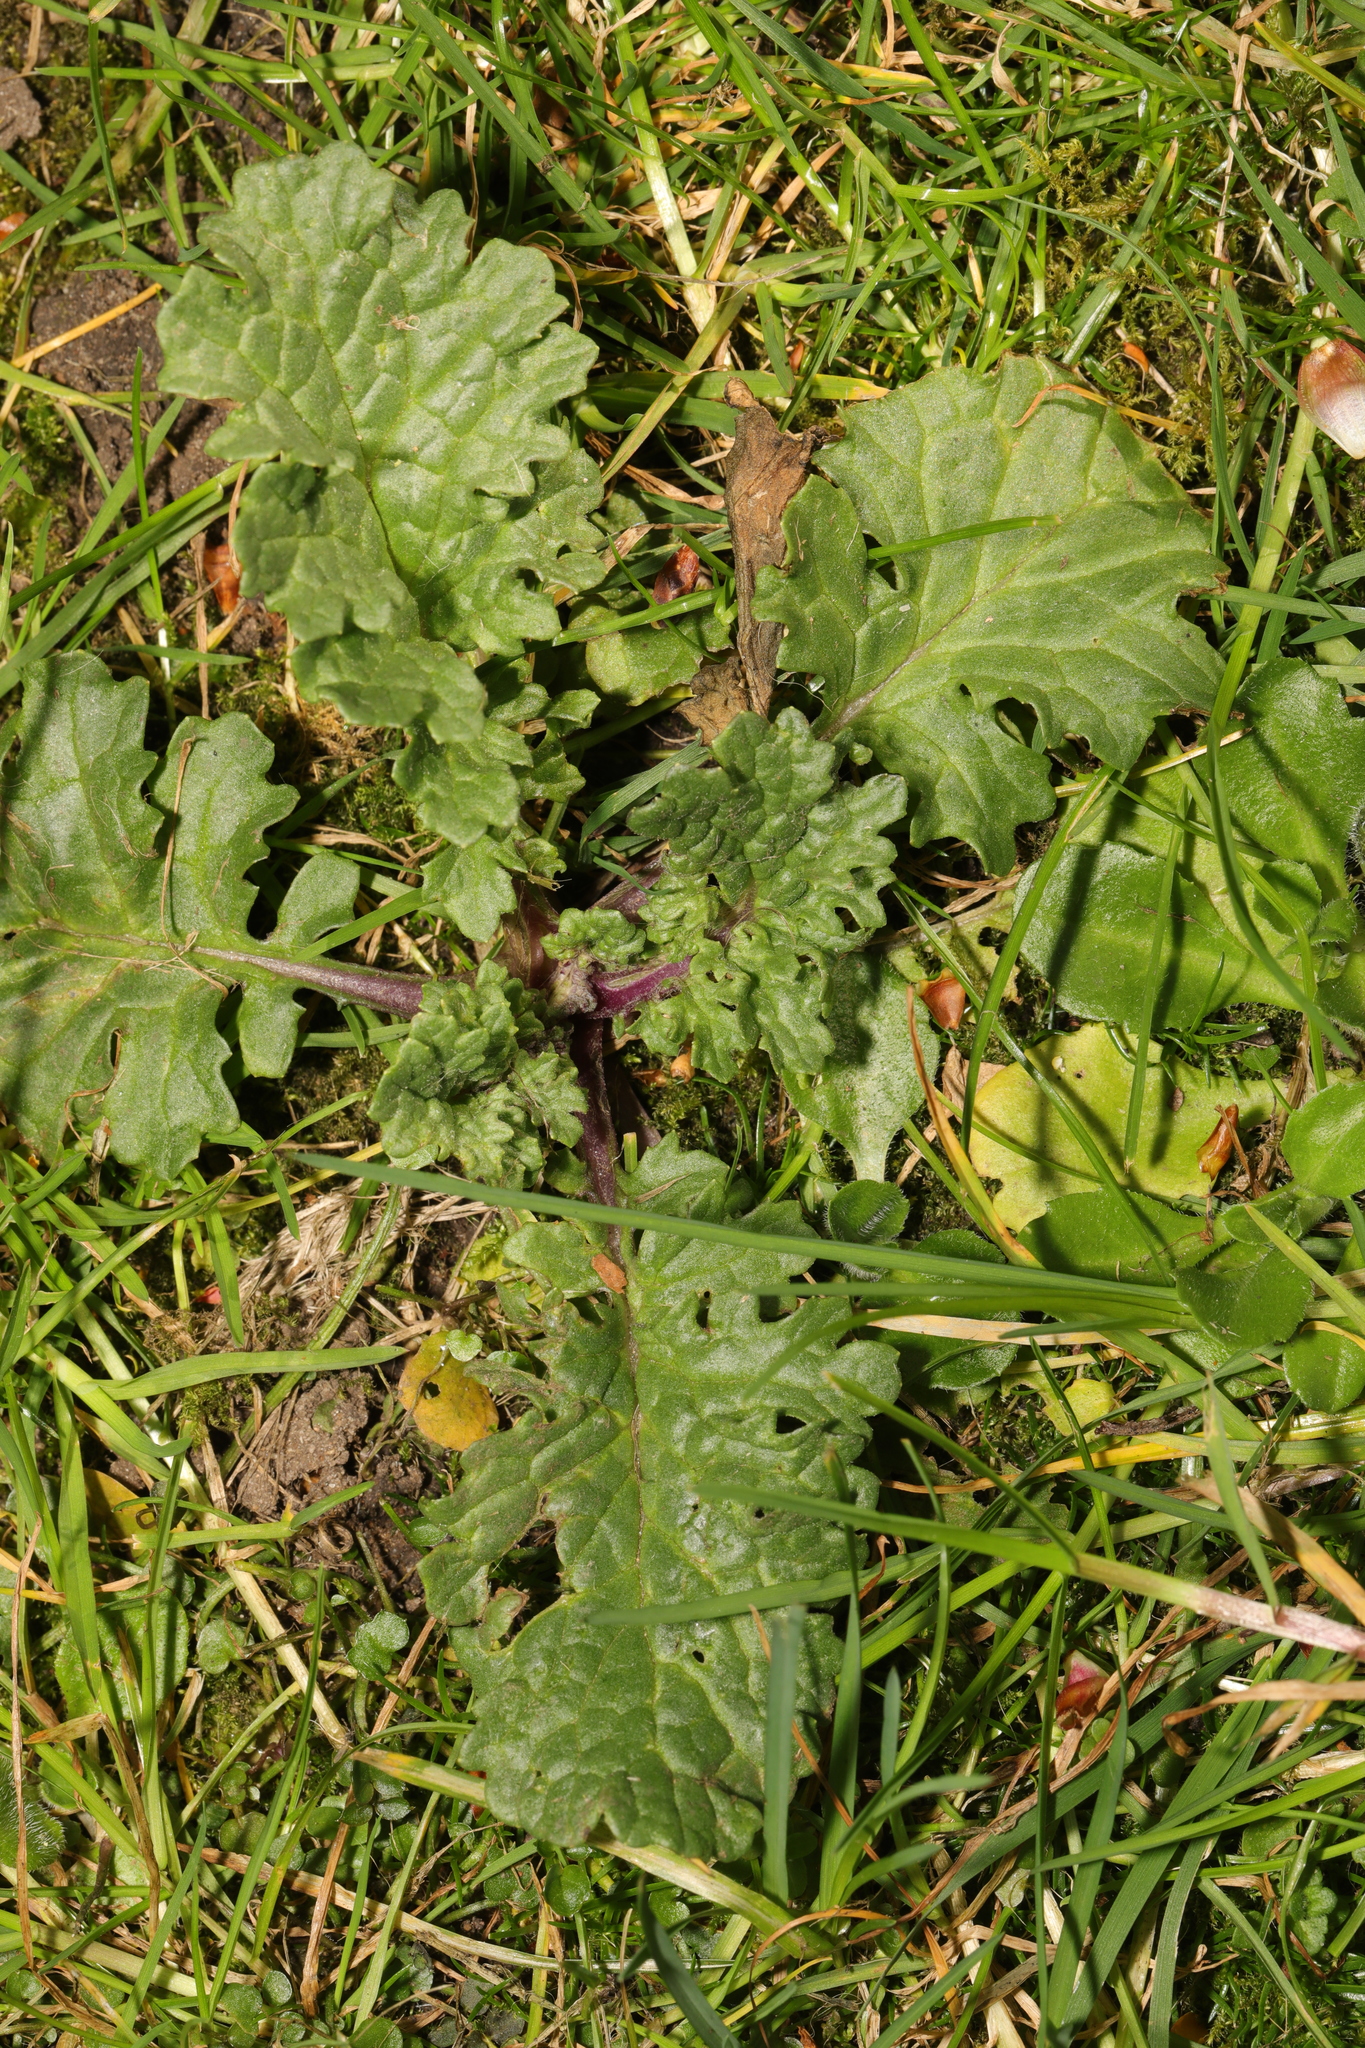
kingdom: Plantae
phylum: Tracheophyta
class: Magnoliopsida
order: Asterales
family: Asteraceae
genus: Jacobaea
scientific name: Jacobaea vulgaris
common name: Stinking willie
